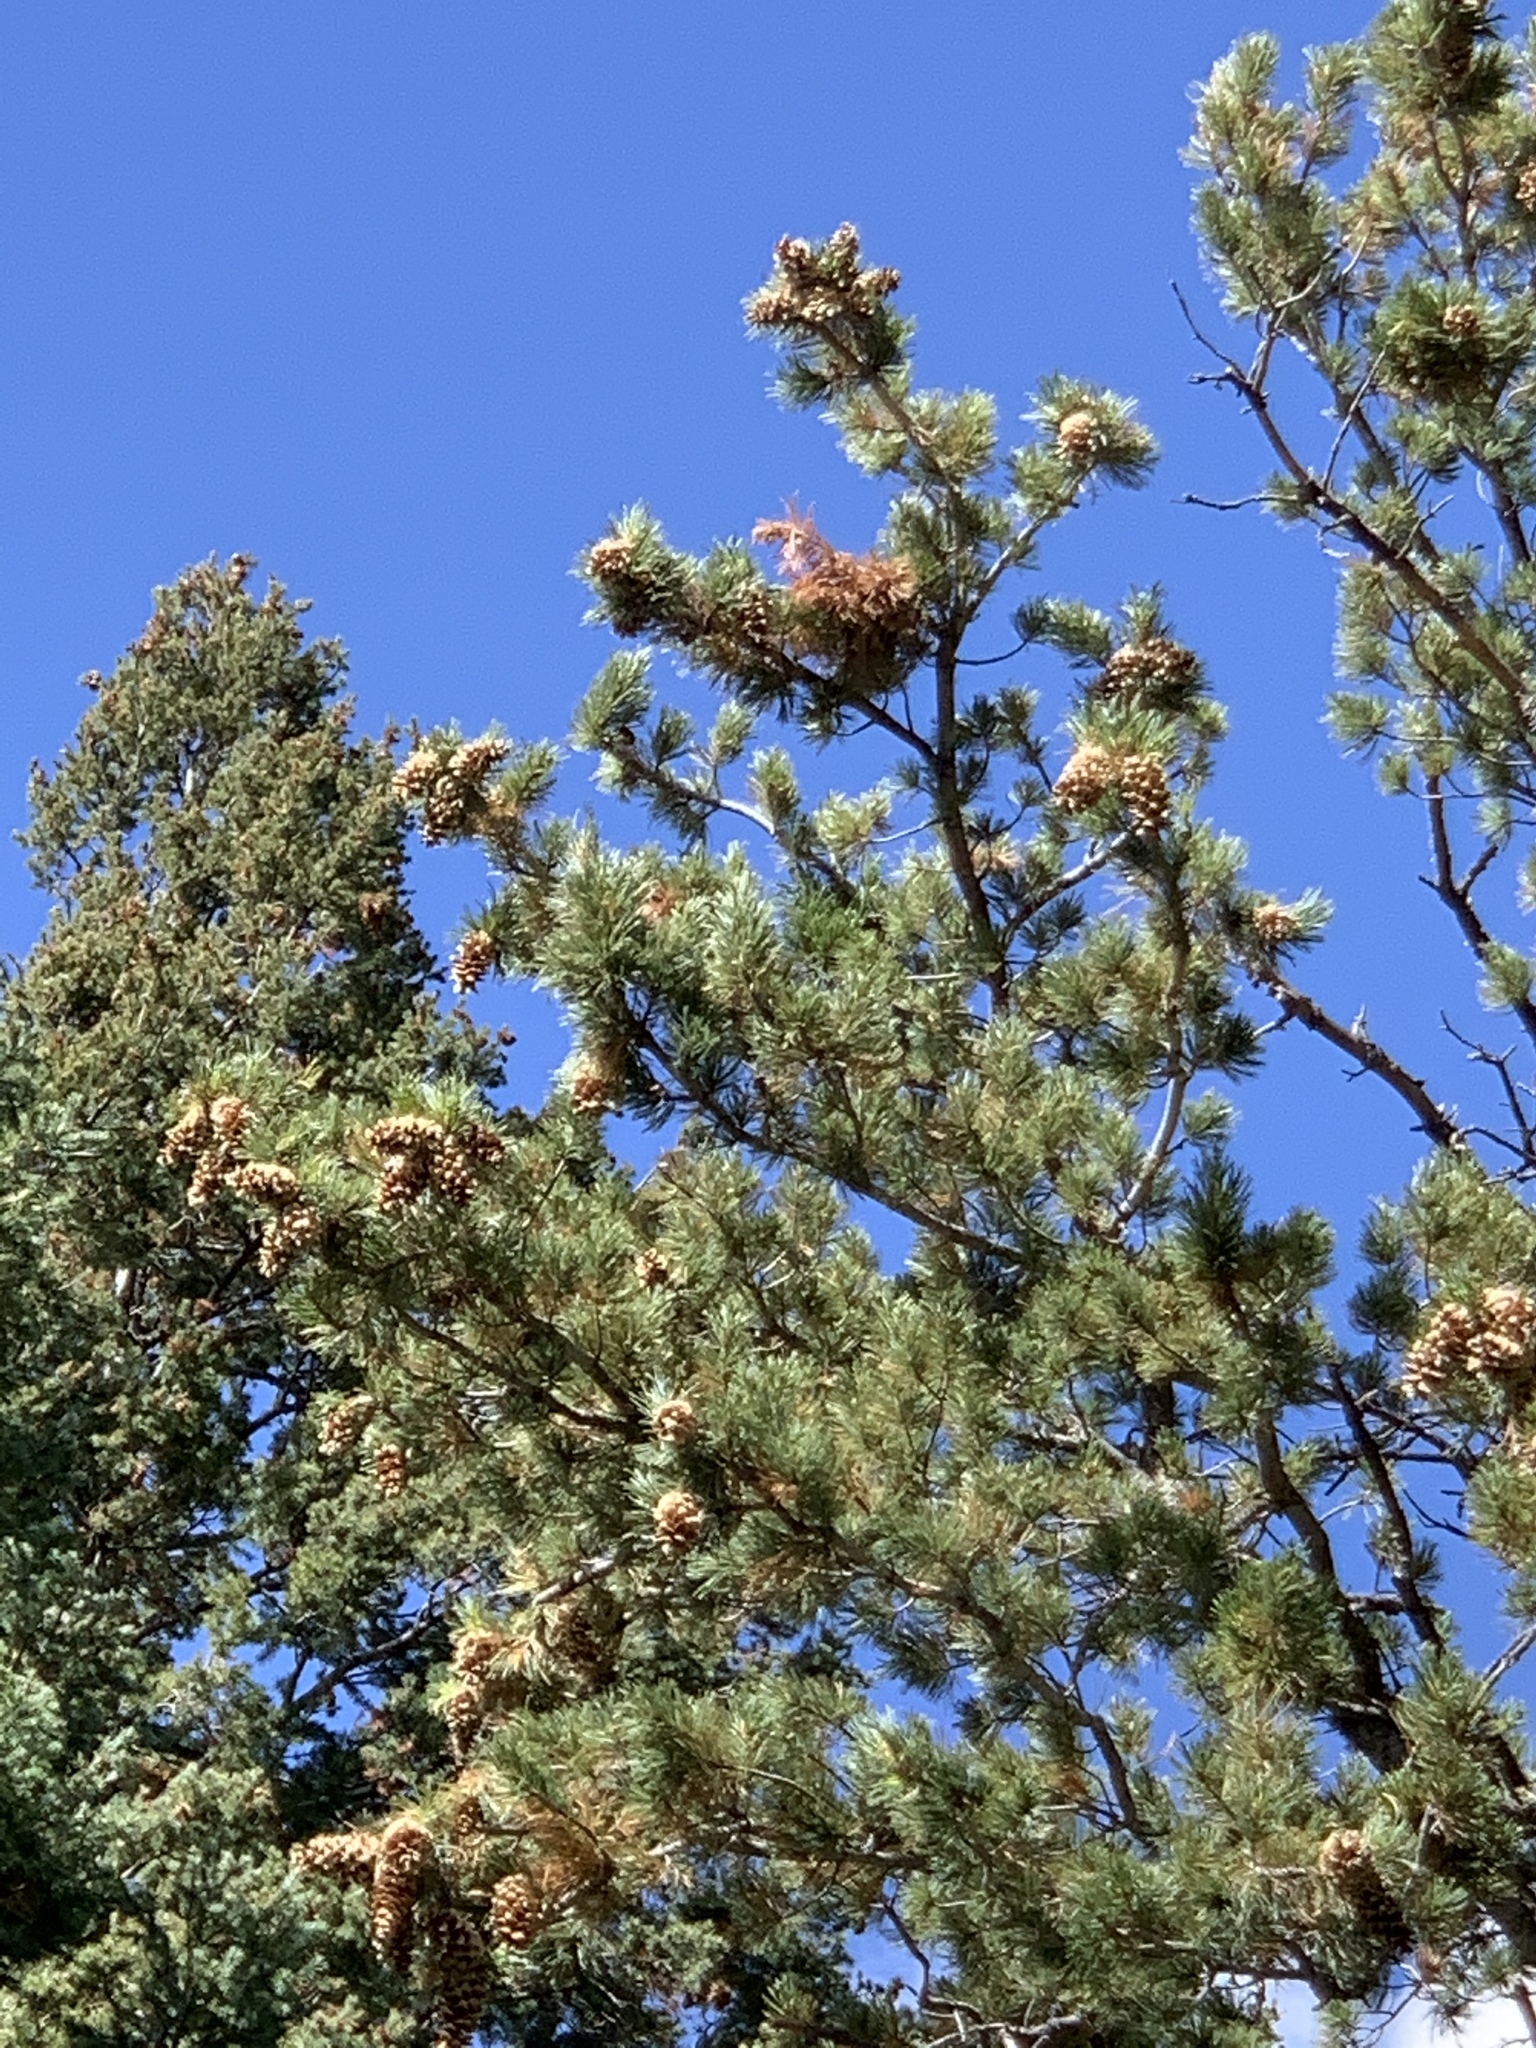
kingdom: Plantae
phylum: Tracheophyta
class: Pinopsida
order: Pinales
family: Pinaceae
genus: Pinus
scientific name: Pinus strobiformis
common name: Southwestern white pine
